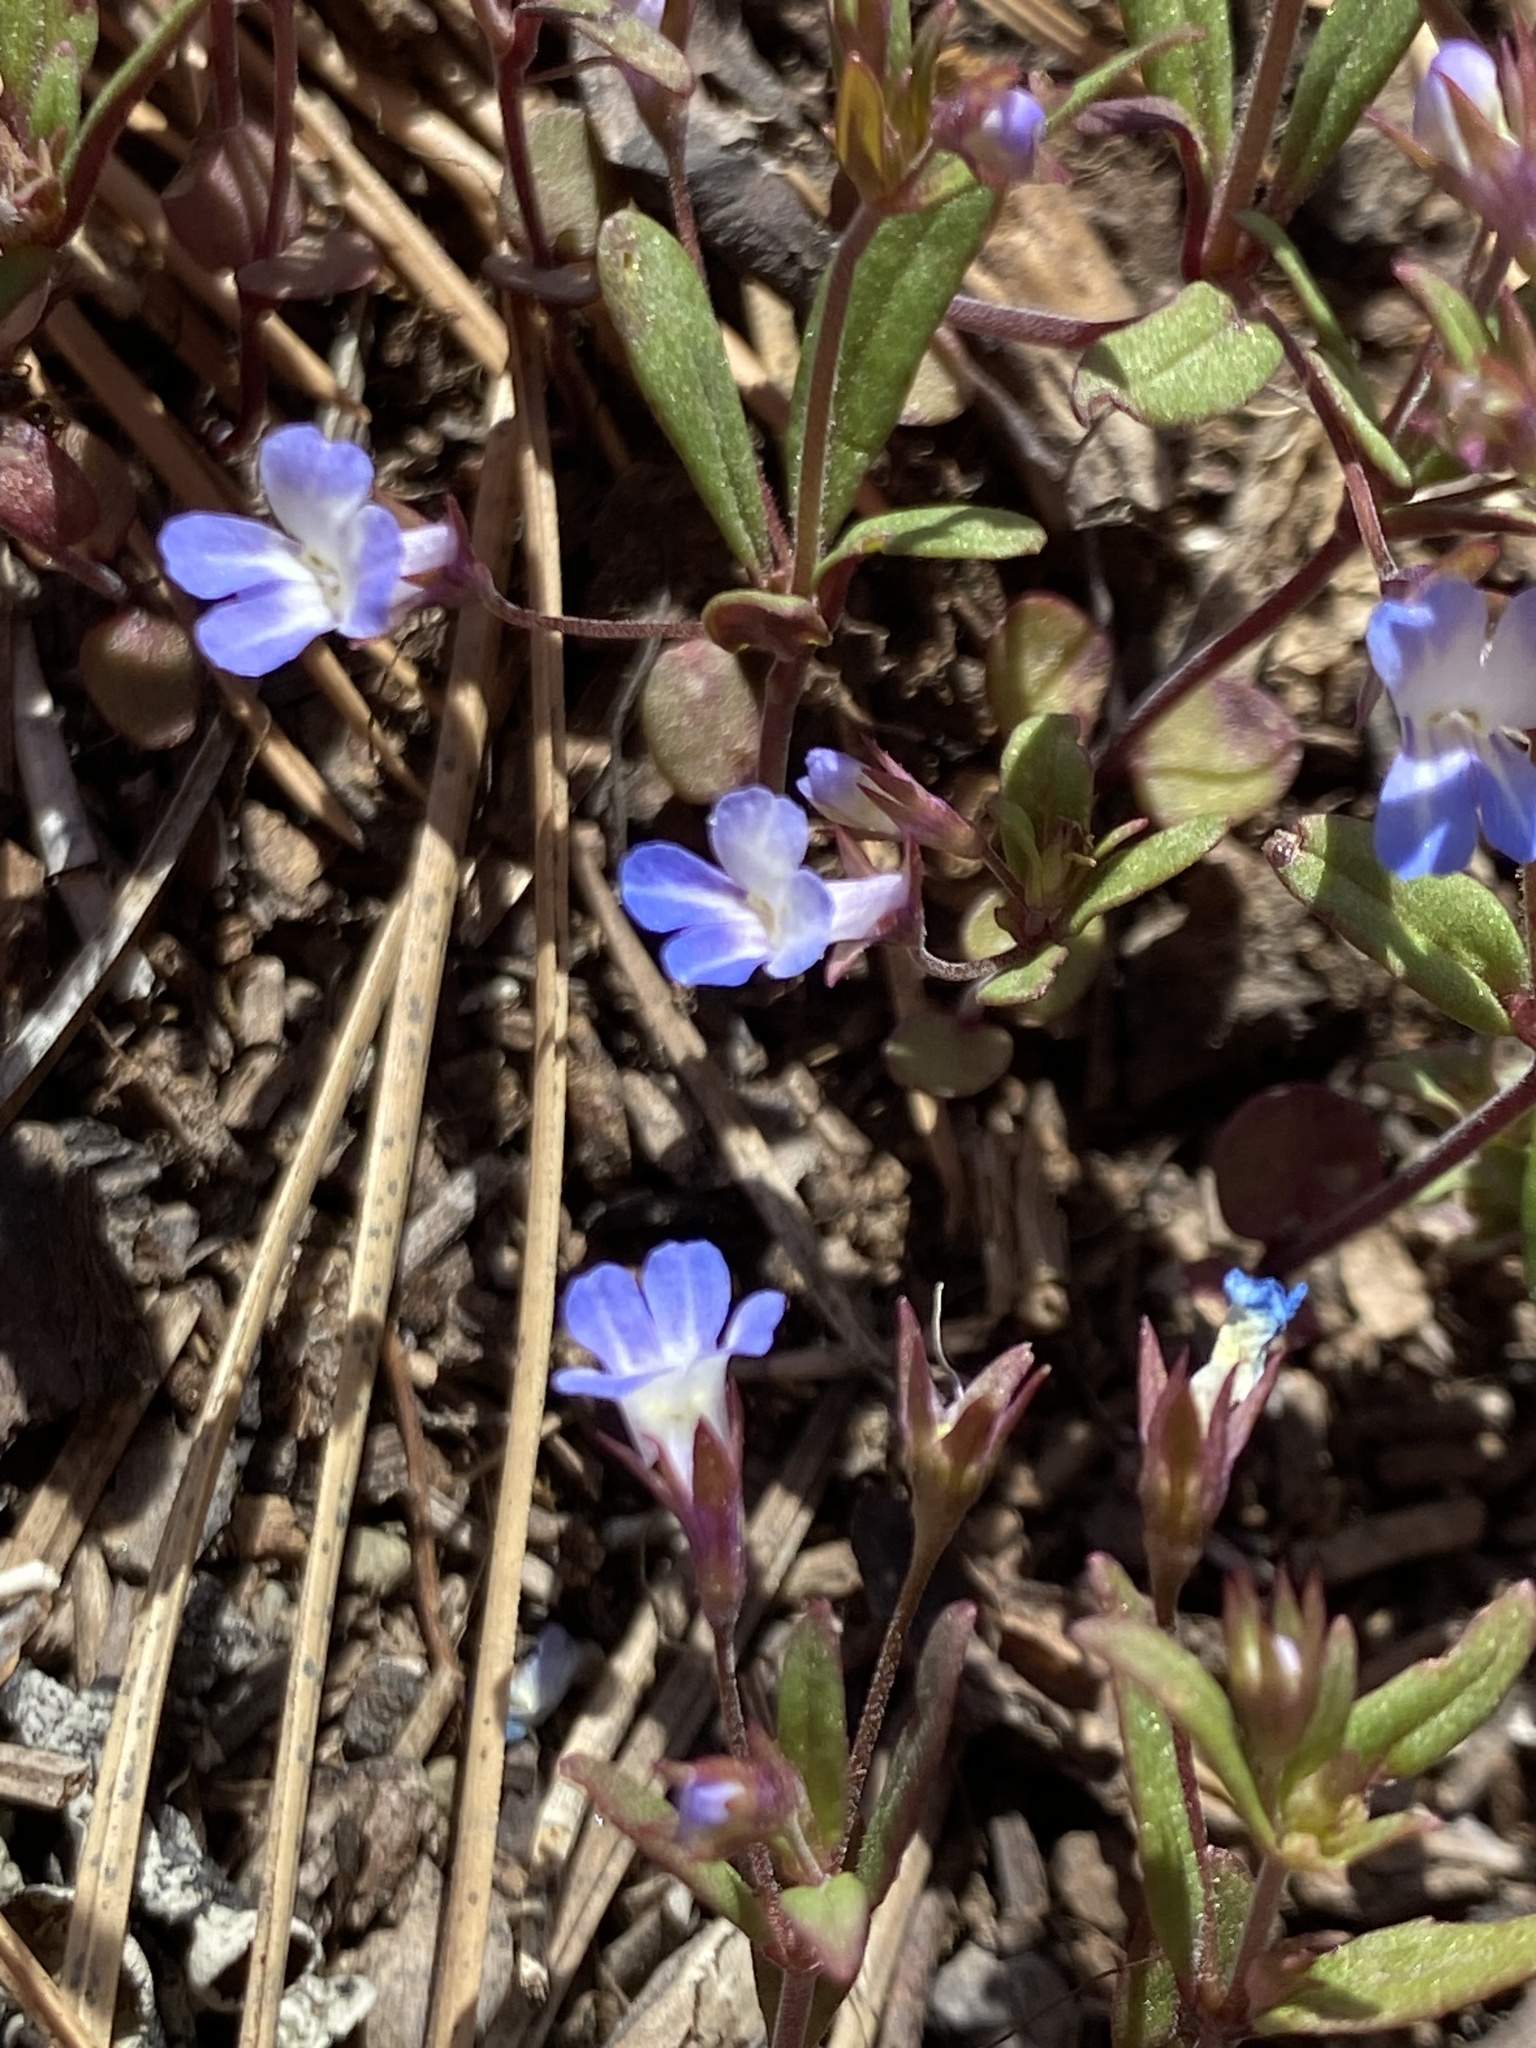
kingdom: Plantae
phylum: Tracheophyta
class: Magnoliopsida
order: Lamiales
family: Plantaginaceae
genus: Collinsia
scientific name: Collinsia parviflora
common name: Blue-lips
